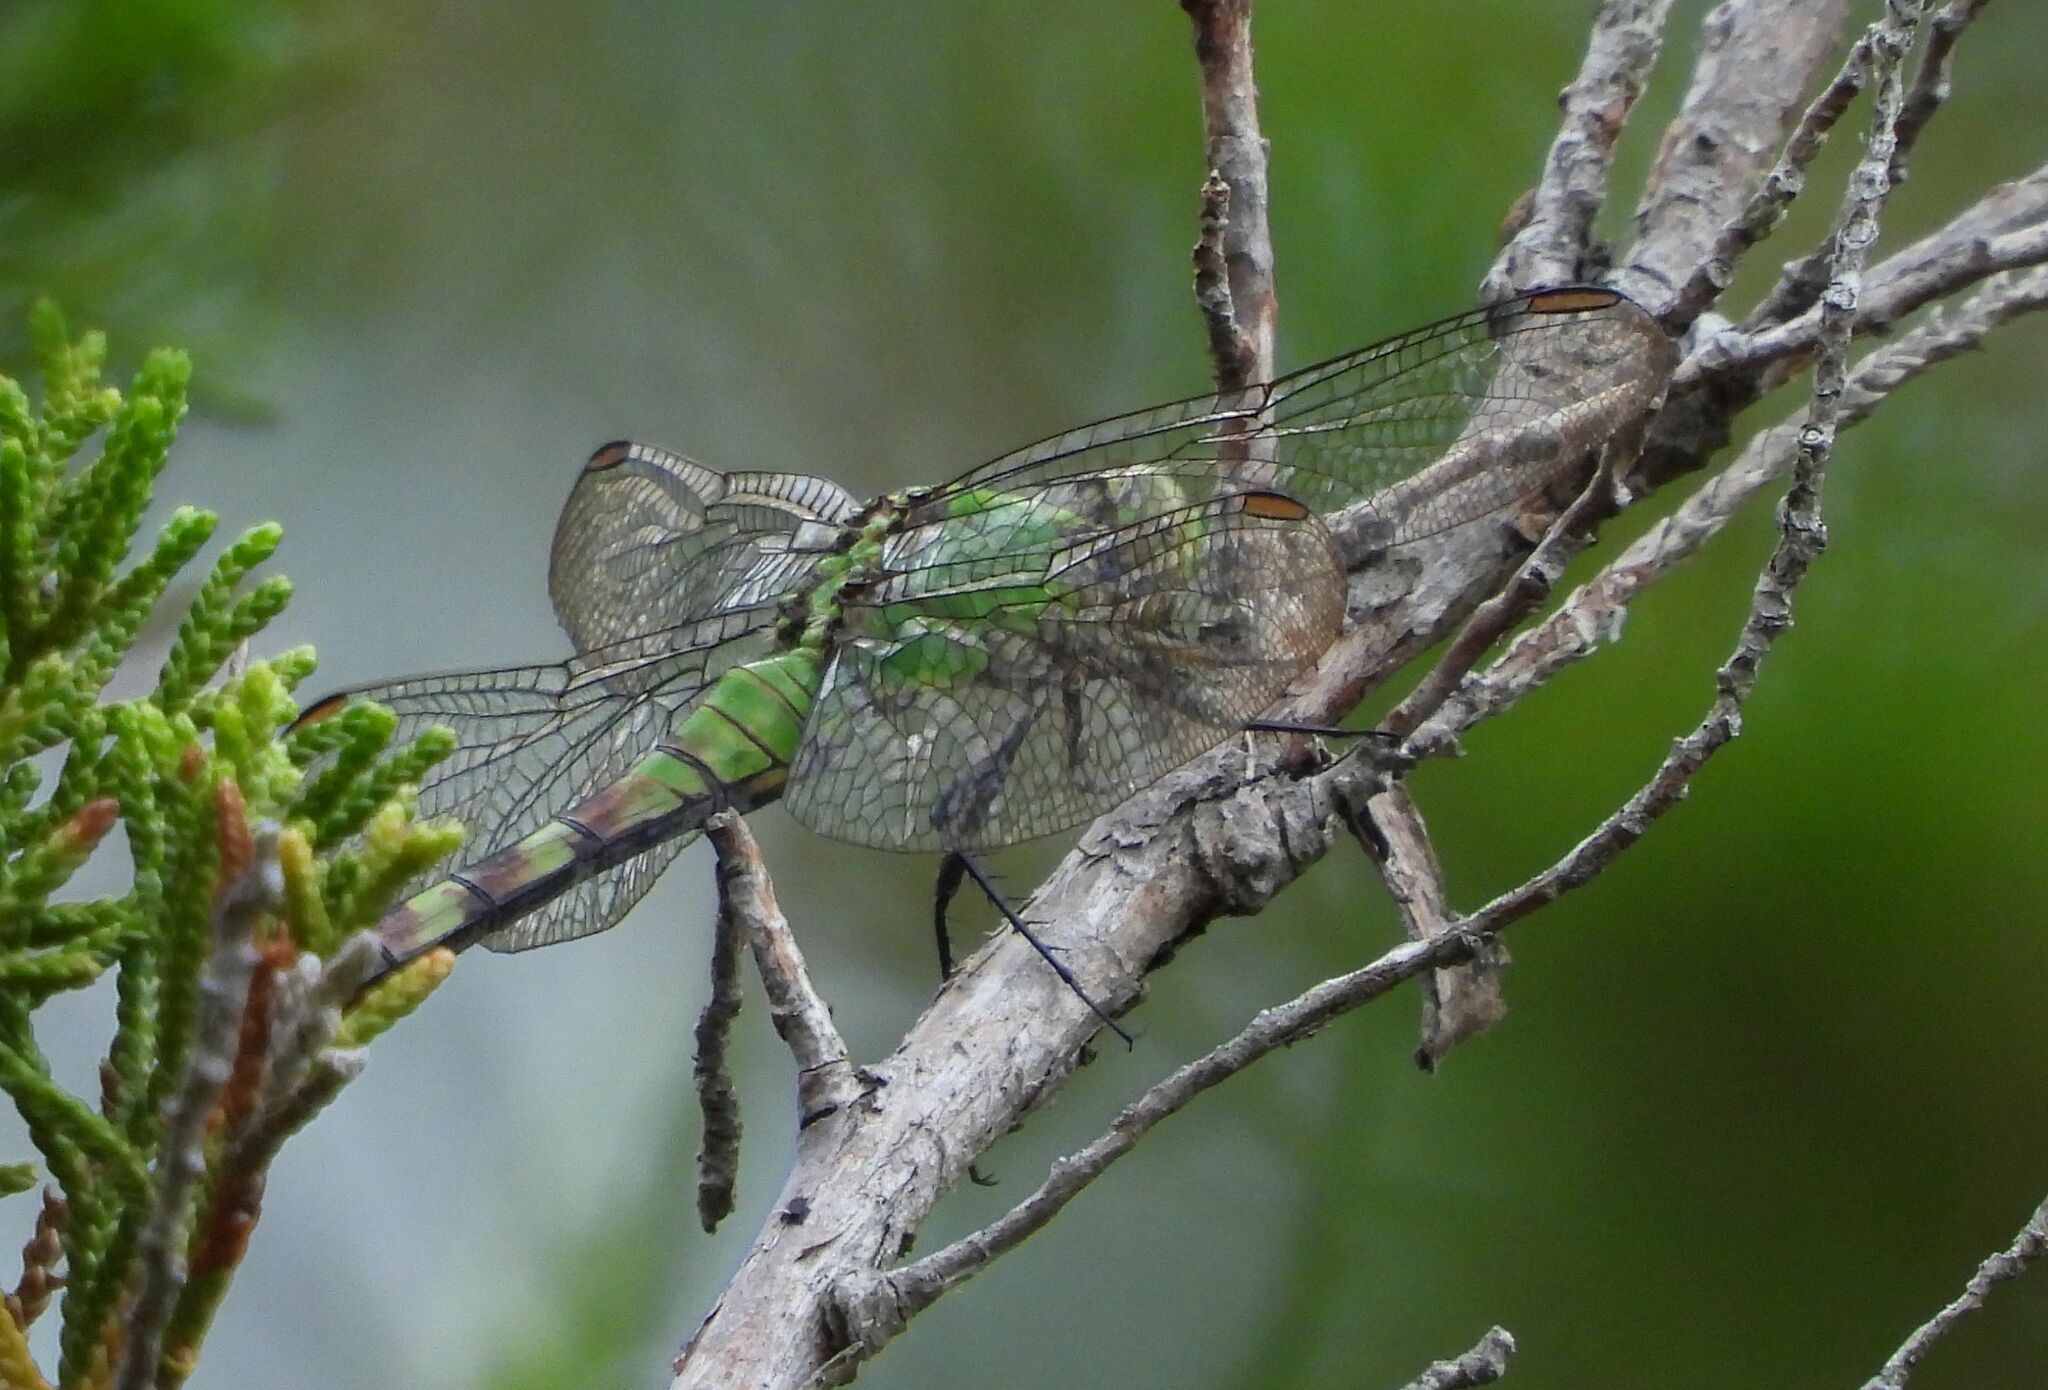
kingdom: Animalia
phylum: Arthropoda
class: Insecta
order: Odonata
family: Libellulidae
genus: Erythemis
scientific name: Erythemis simplicicollis
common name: Eastern pondhawk
